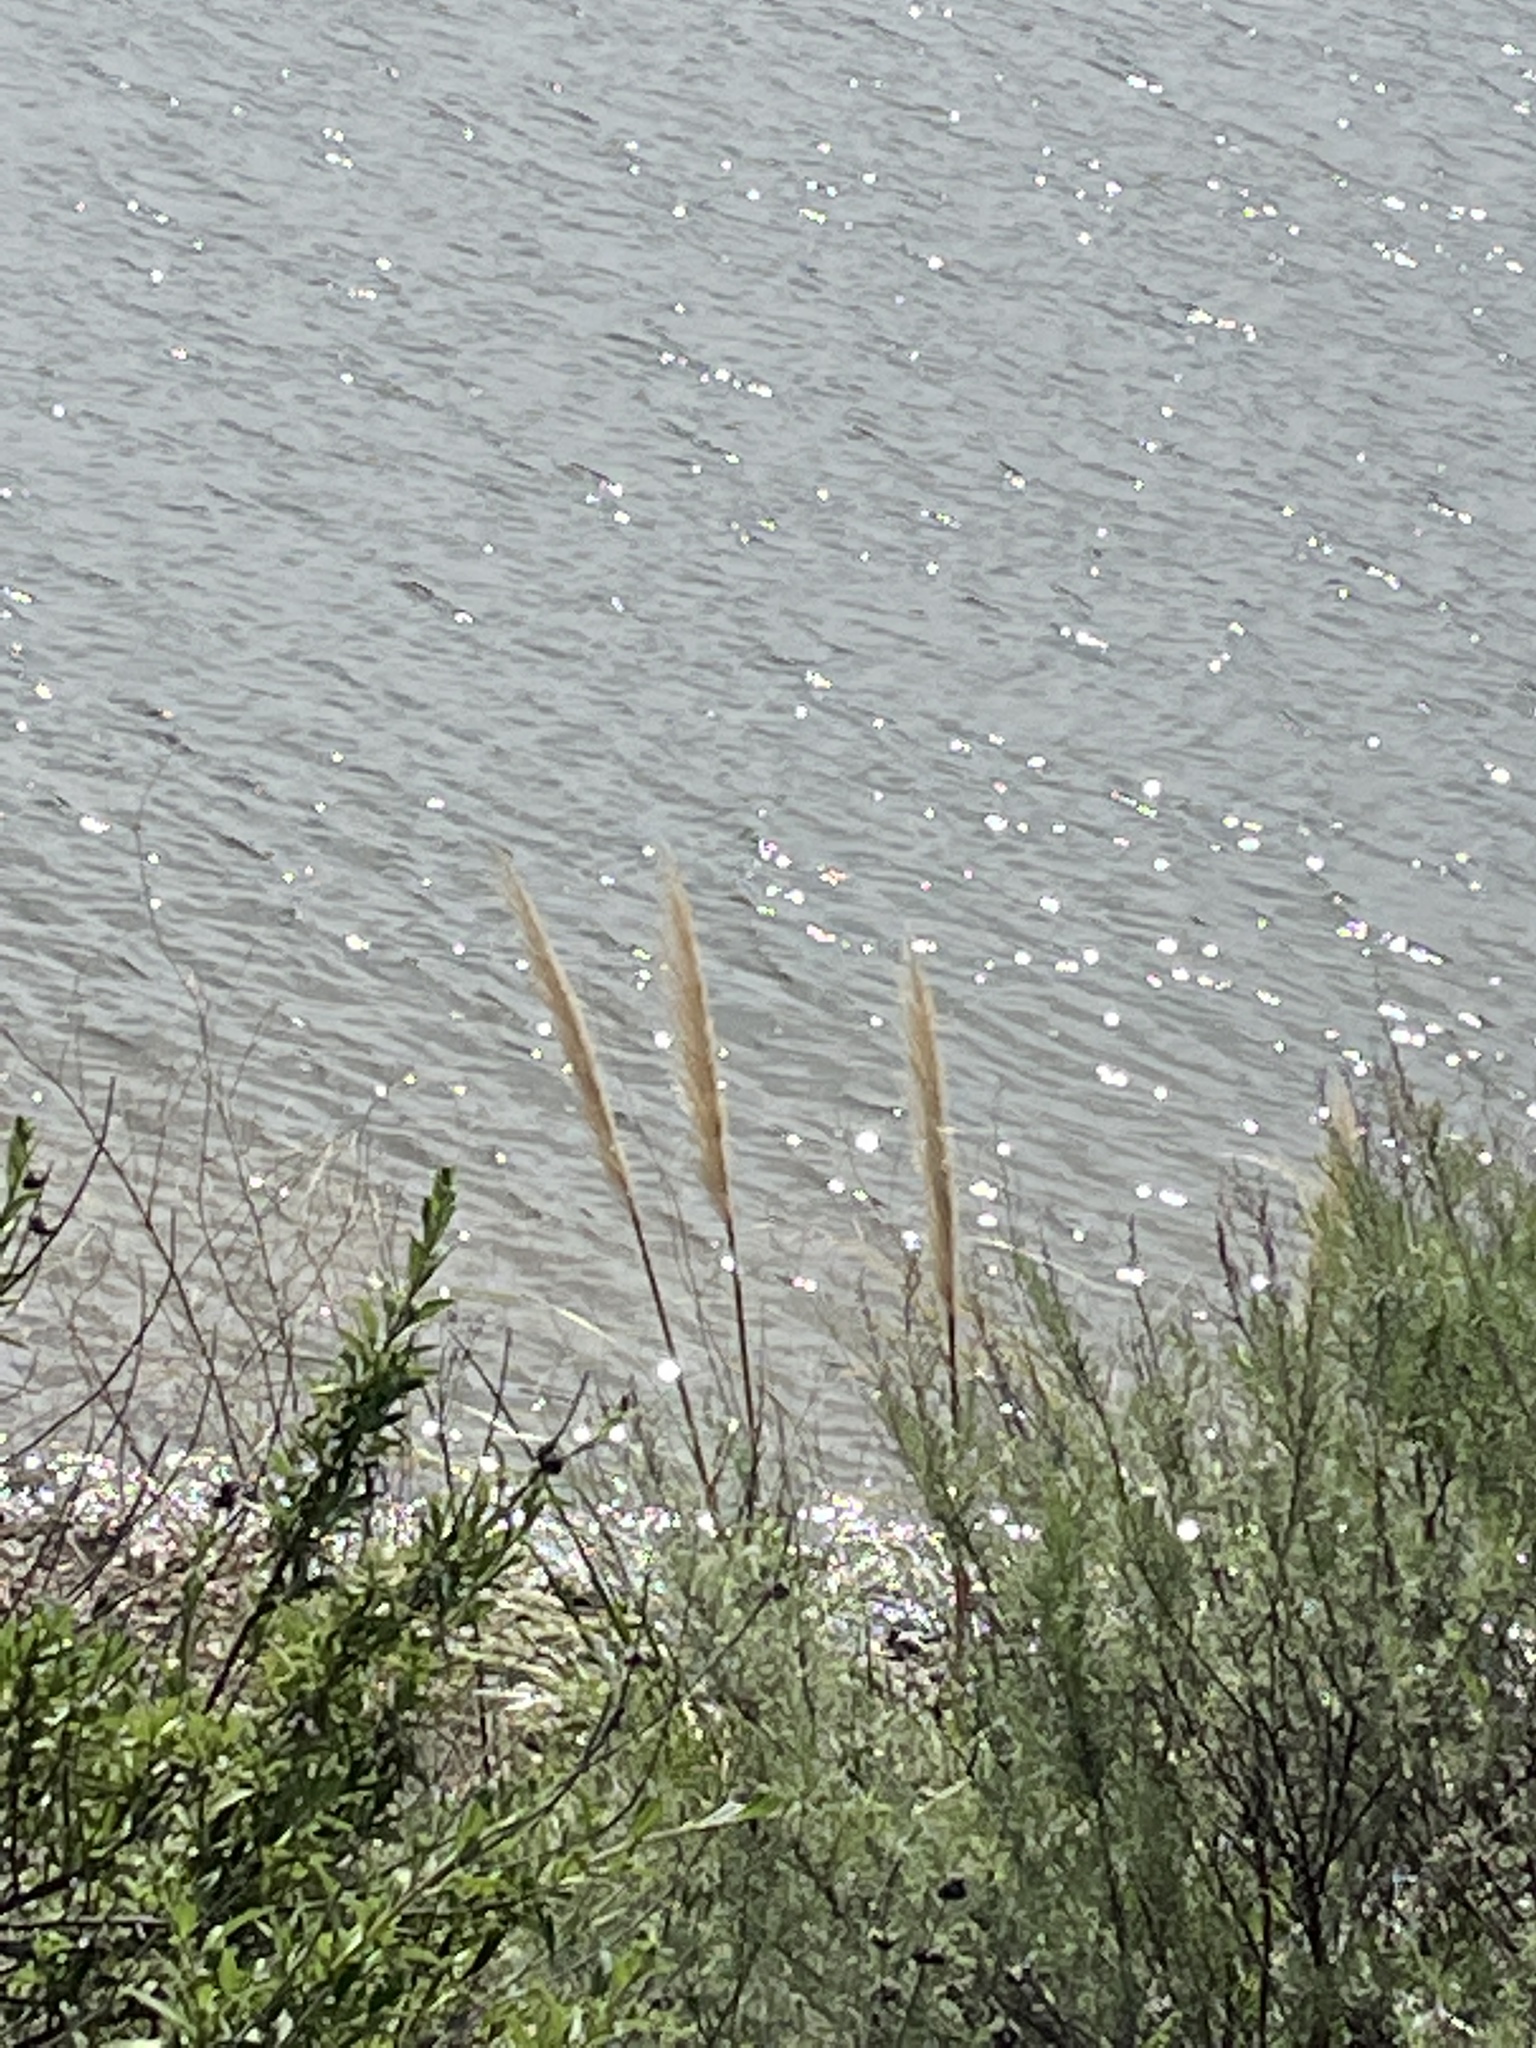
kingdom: Plantae
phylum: Tracheophyta
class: Liliopsida
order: Poales
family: Poaceae
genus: Cortaderia
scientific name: Cortaderia selloana
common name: Uruguayan pampas grass
